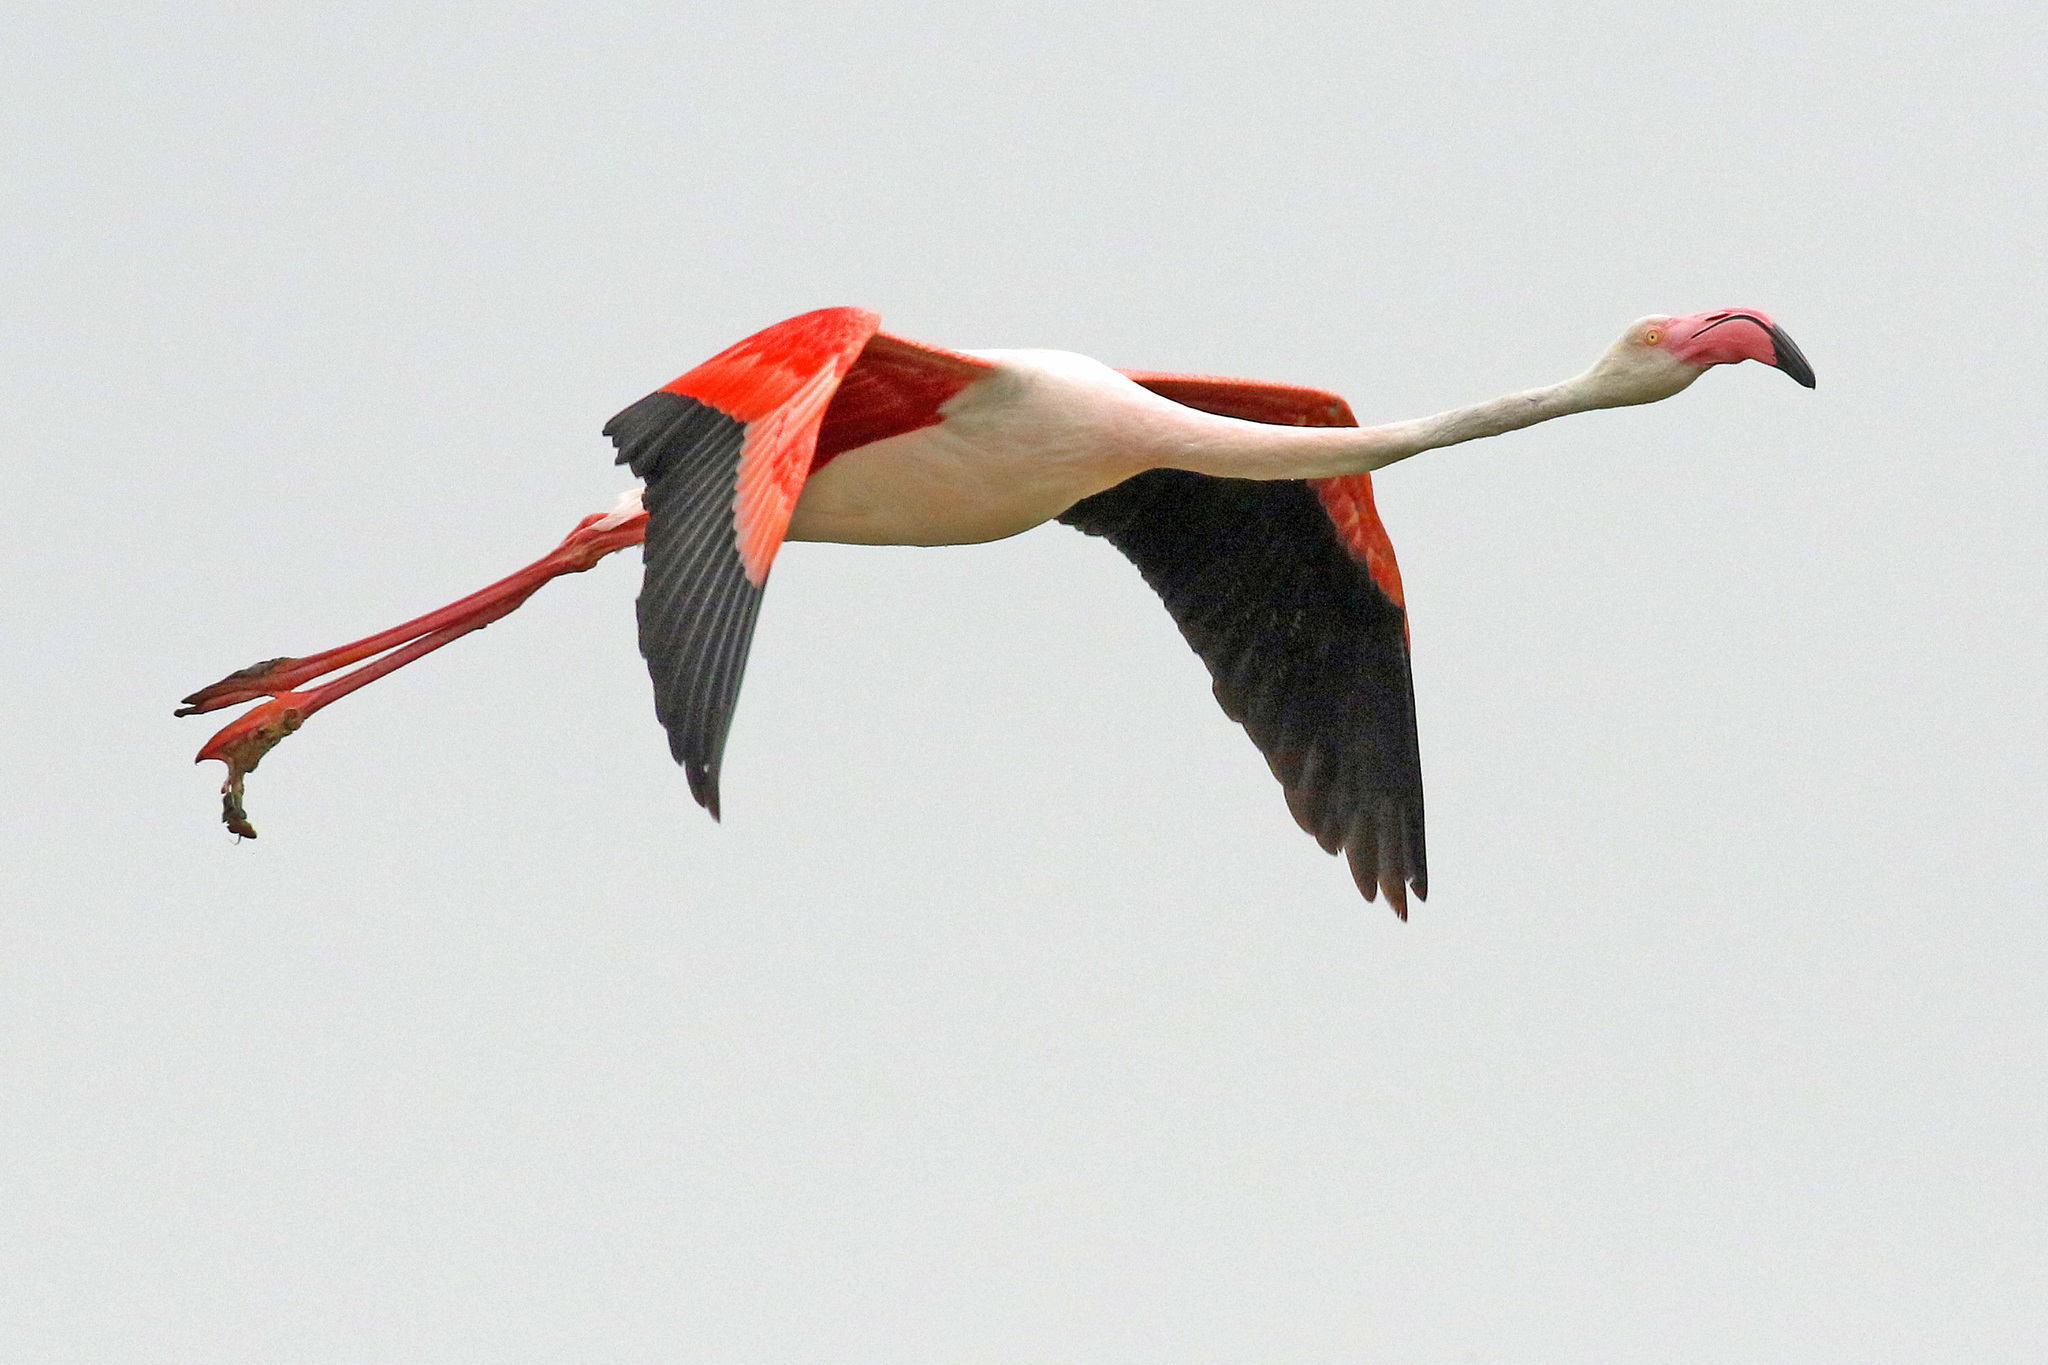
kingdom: Animalia
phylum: Chordata
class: Aves
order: Phoenicopteriformes
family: Phoenicopteridae
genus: Phoenicopterus
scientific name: Phoenicopterus roseus
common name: Greater flamingo
